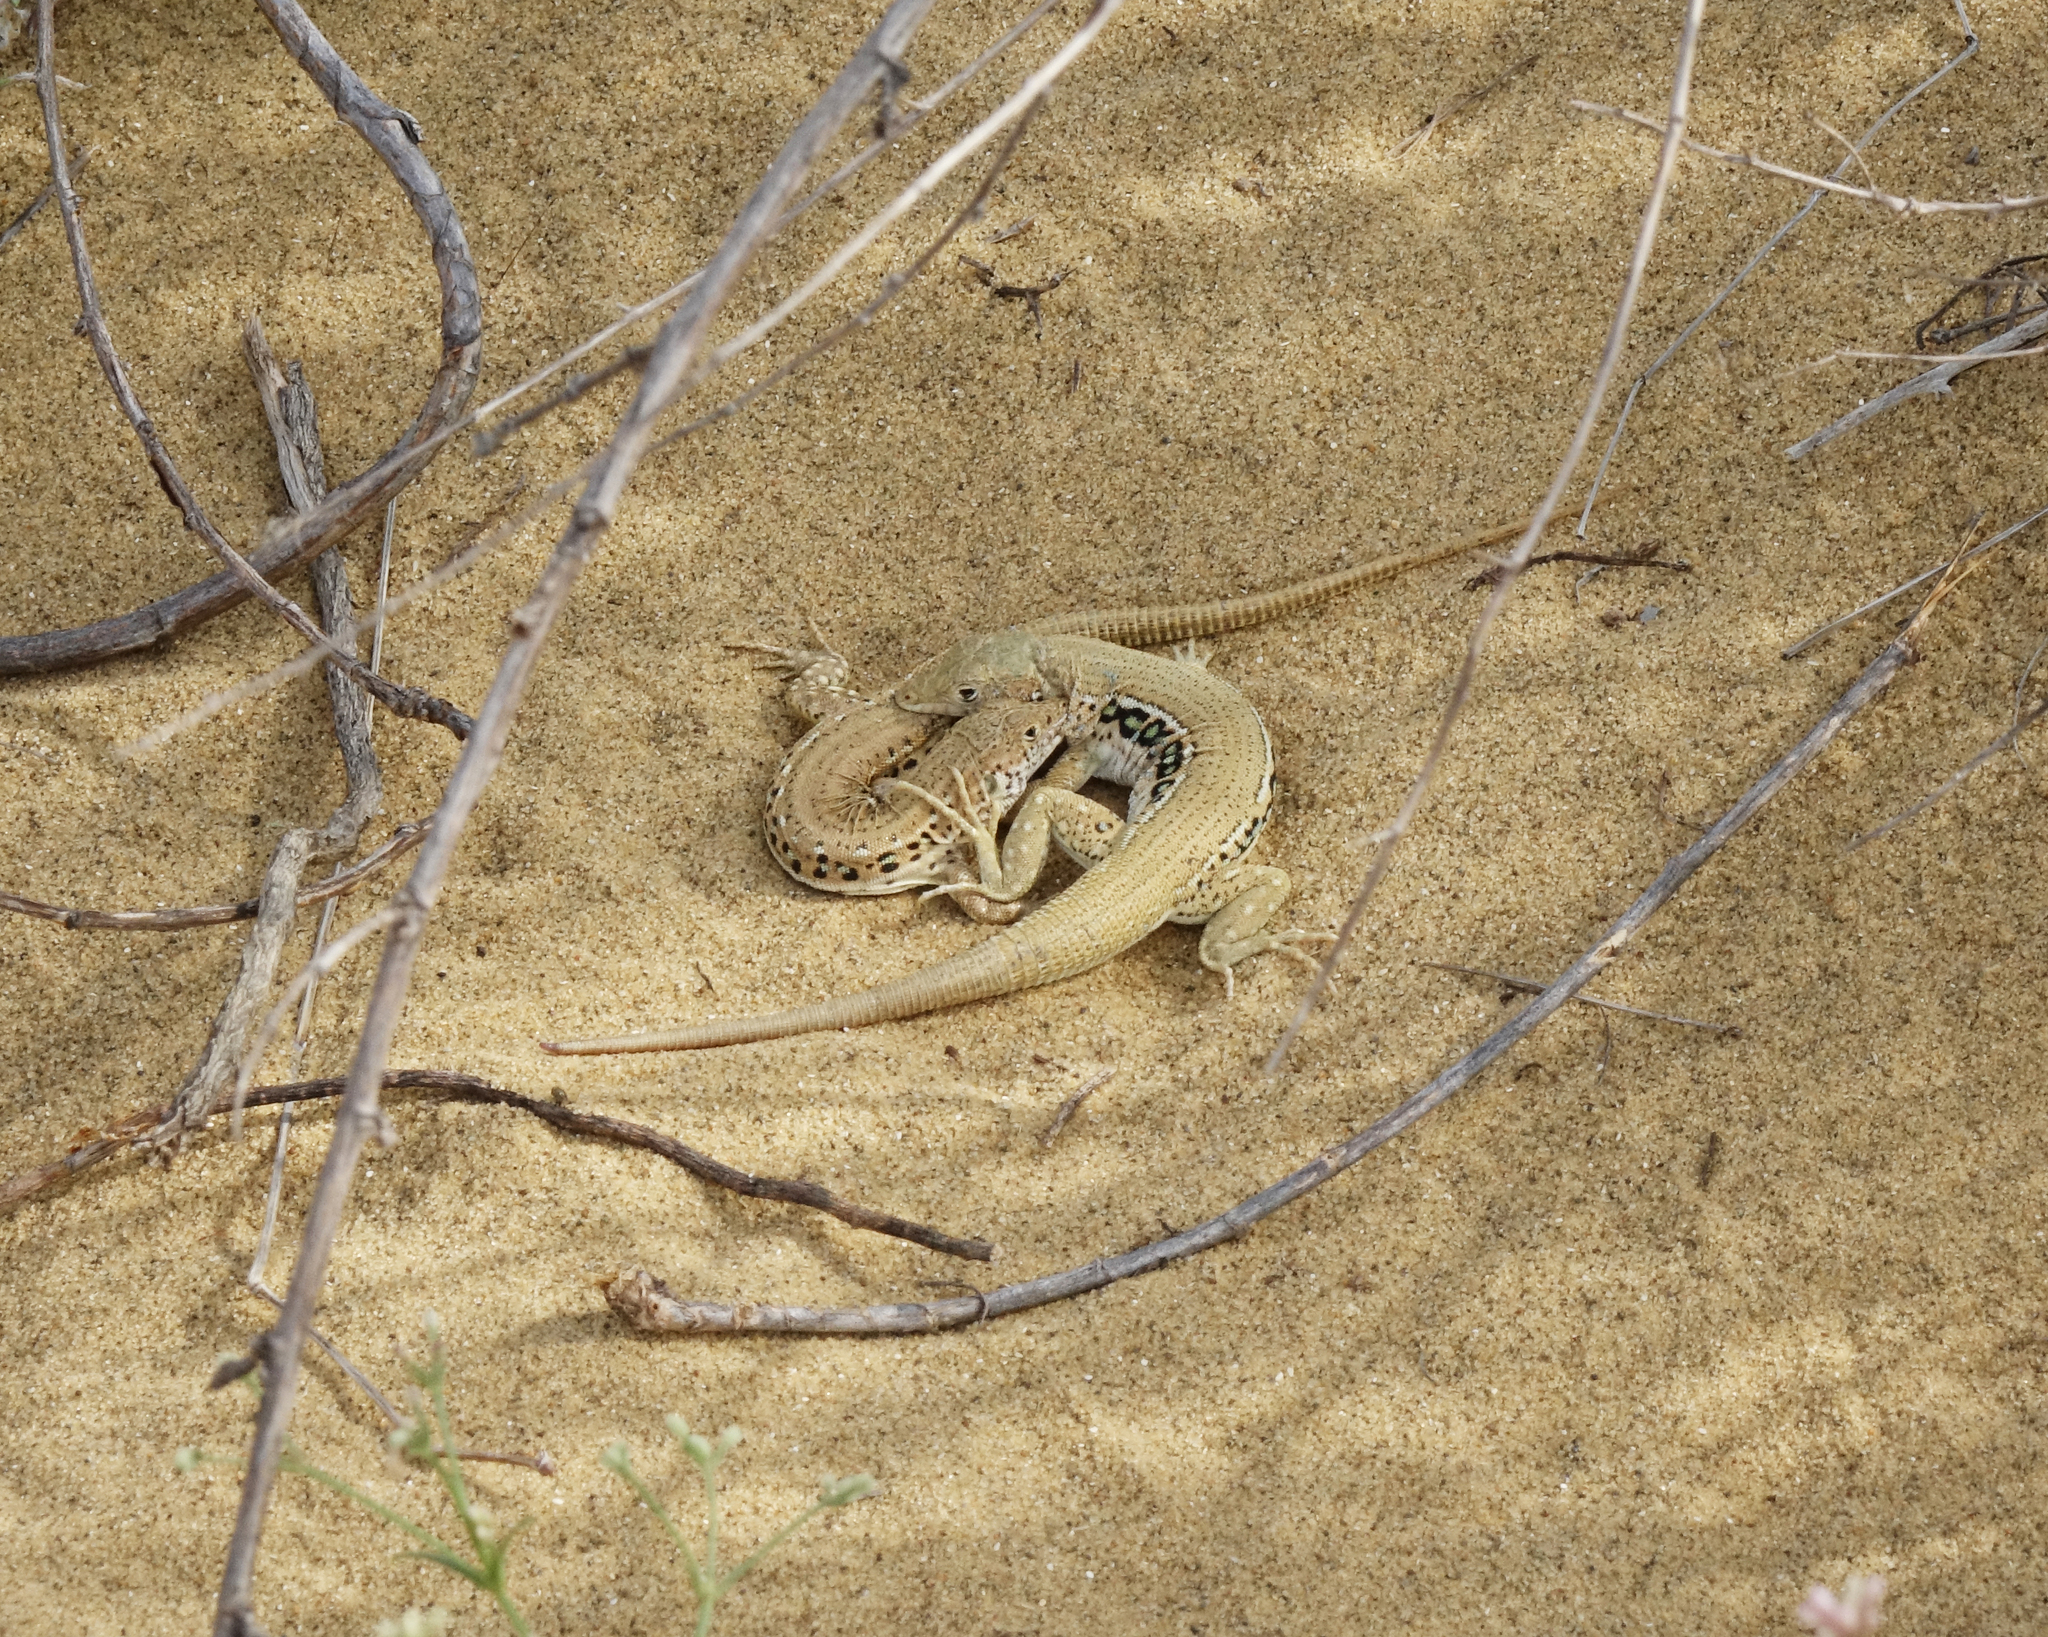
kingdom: Animalia
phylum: Chordata
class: Squamata
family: Lacertidae
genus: Eremias
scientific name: Eremias velox
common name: Central asian racerunner
